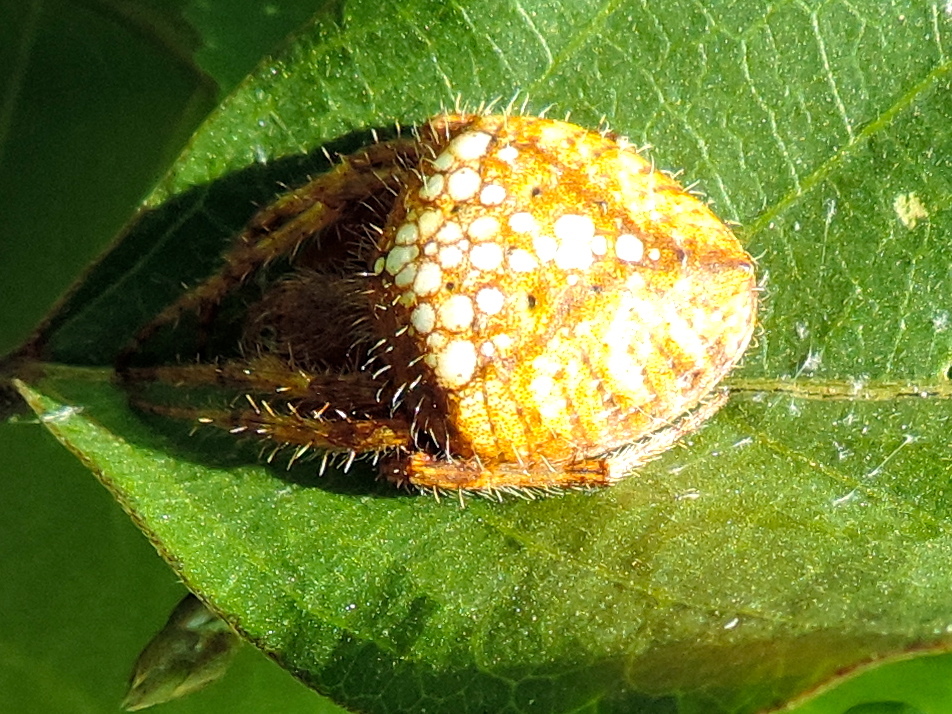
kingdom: Animalia
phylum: Arthropoda
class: Arachnida
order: Araneae
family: Araneidae
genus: Eriophora
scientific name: Eriophora ravilla
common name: Orb weavers
